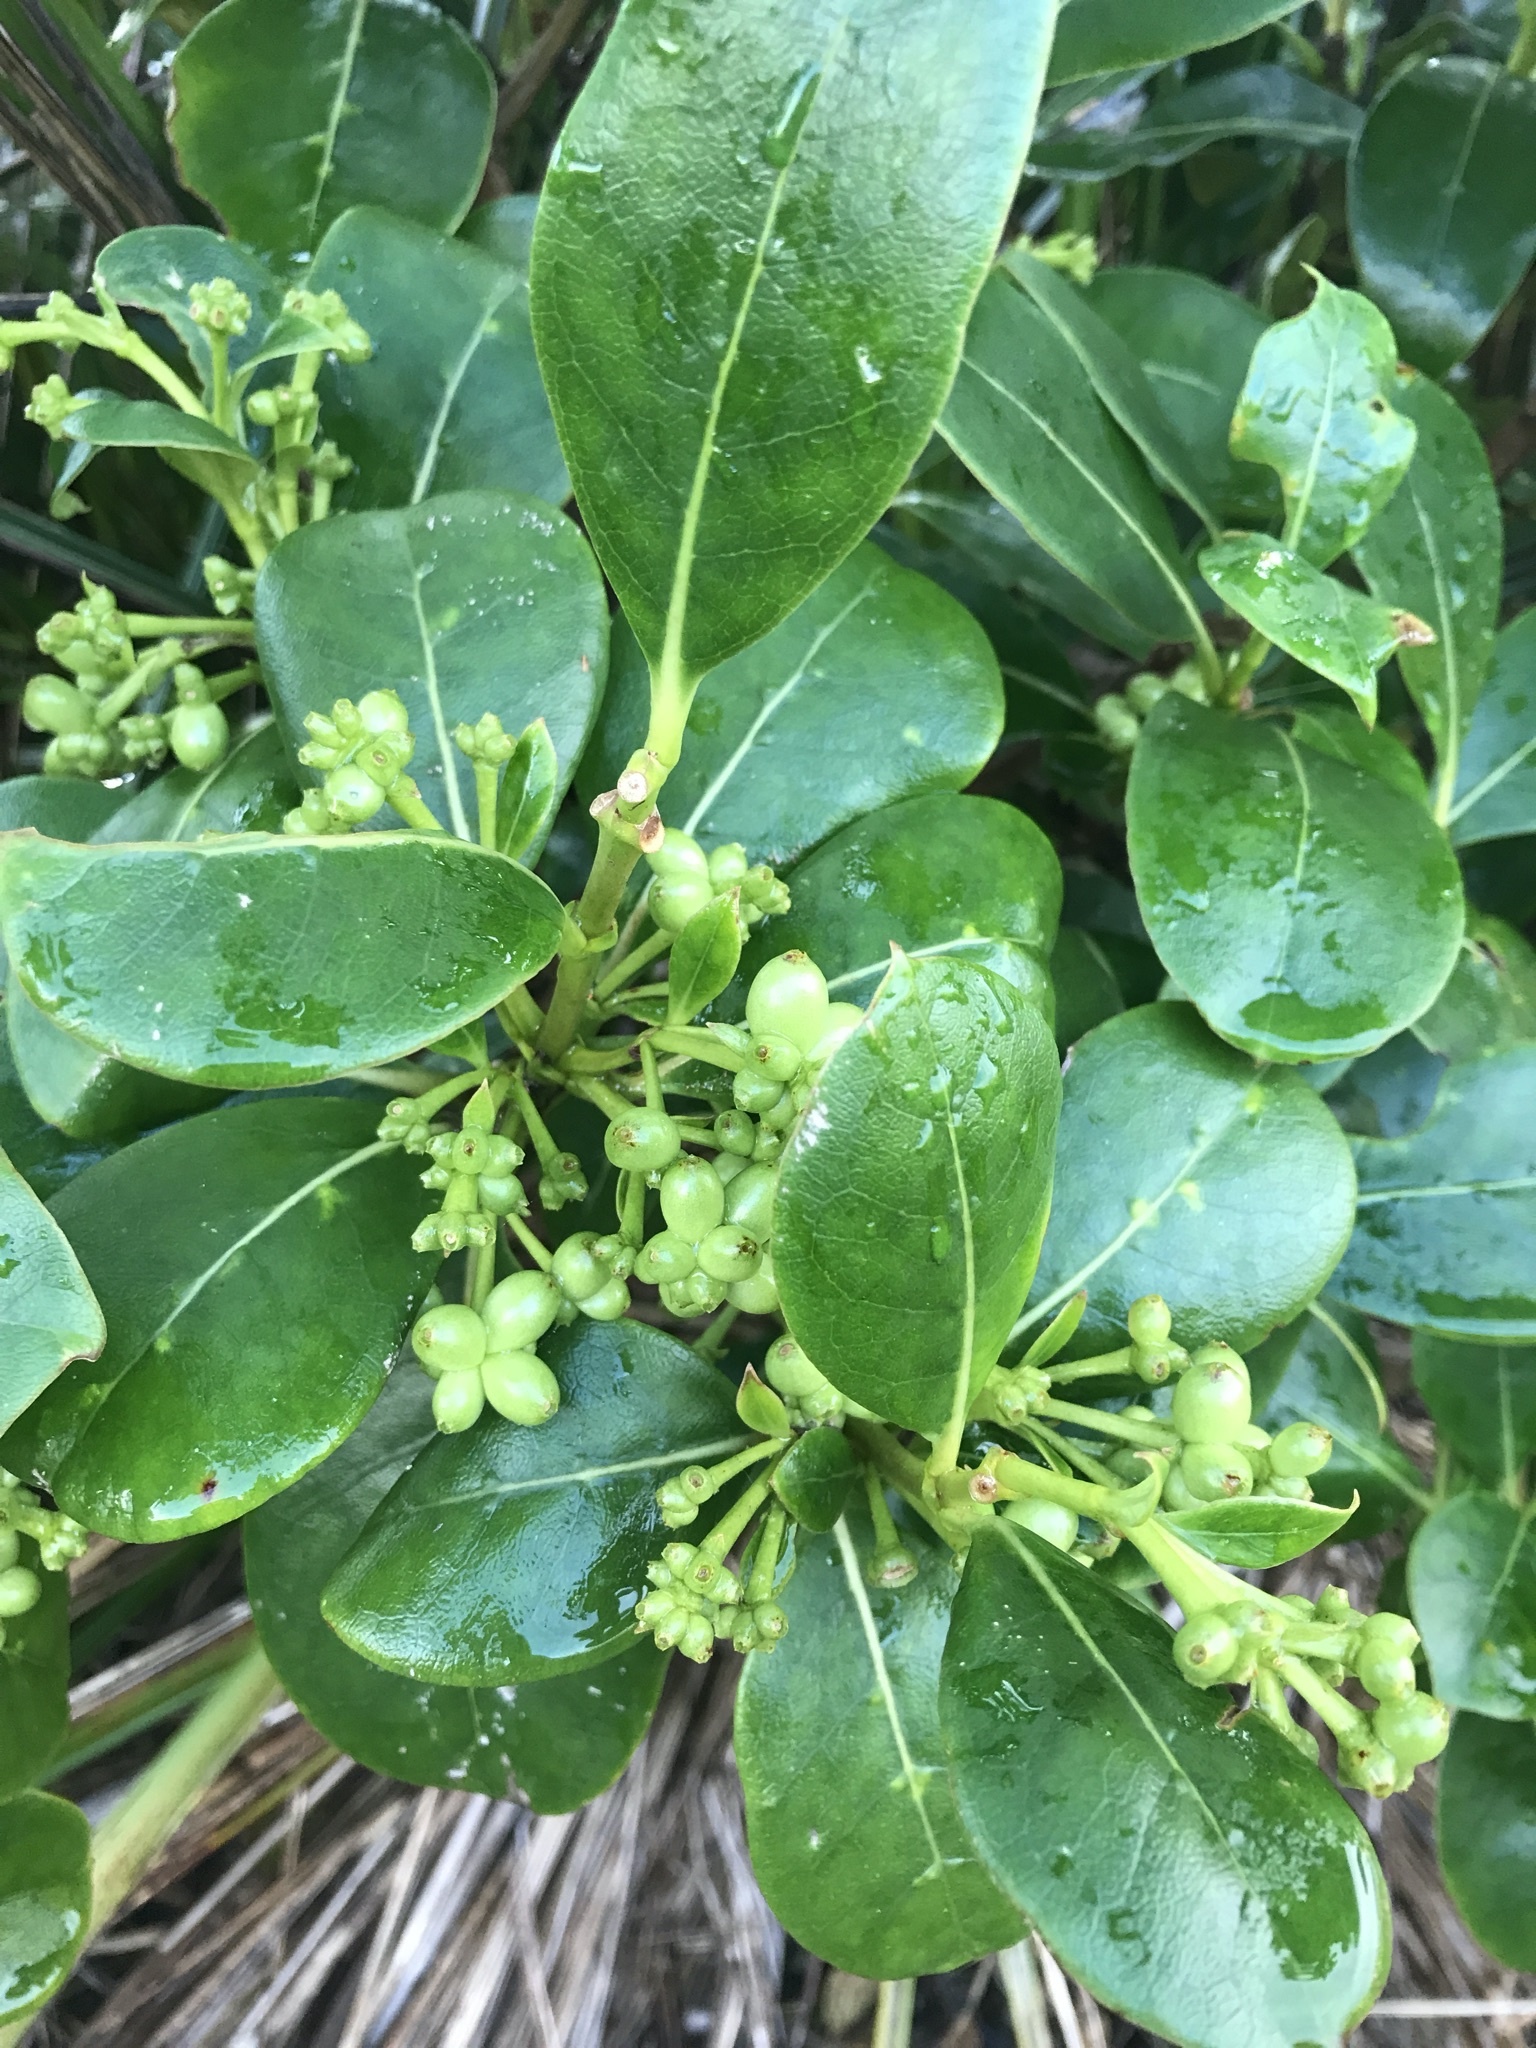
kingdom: Plantae
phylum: Tracheophyta
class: Magnoliopsida
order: Gentianales
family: Rubiaceae
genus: Coprosma
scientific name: Coprosma lucida
